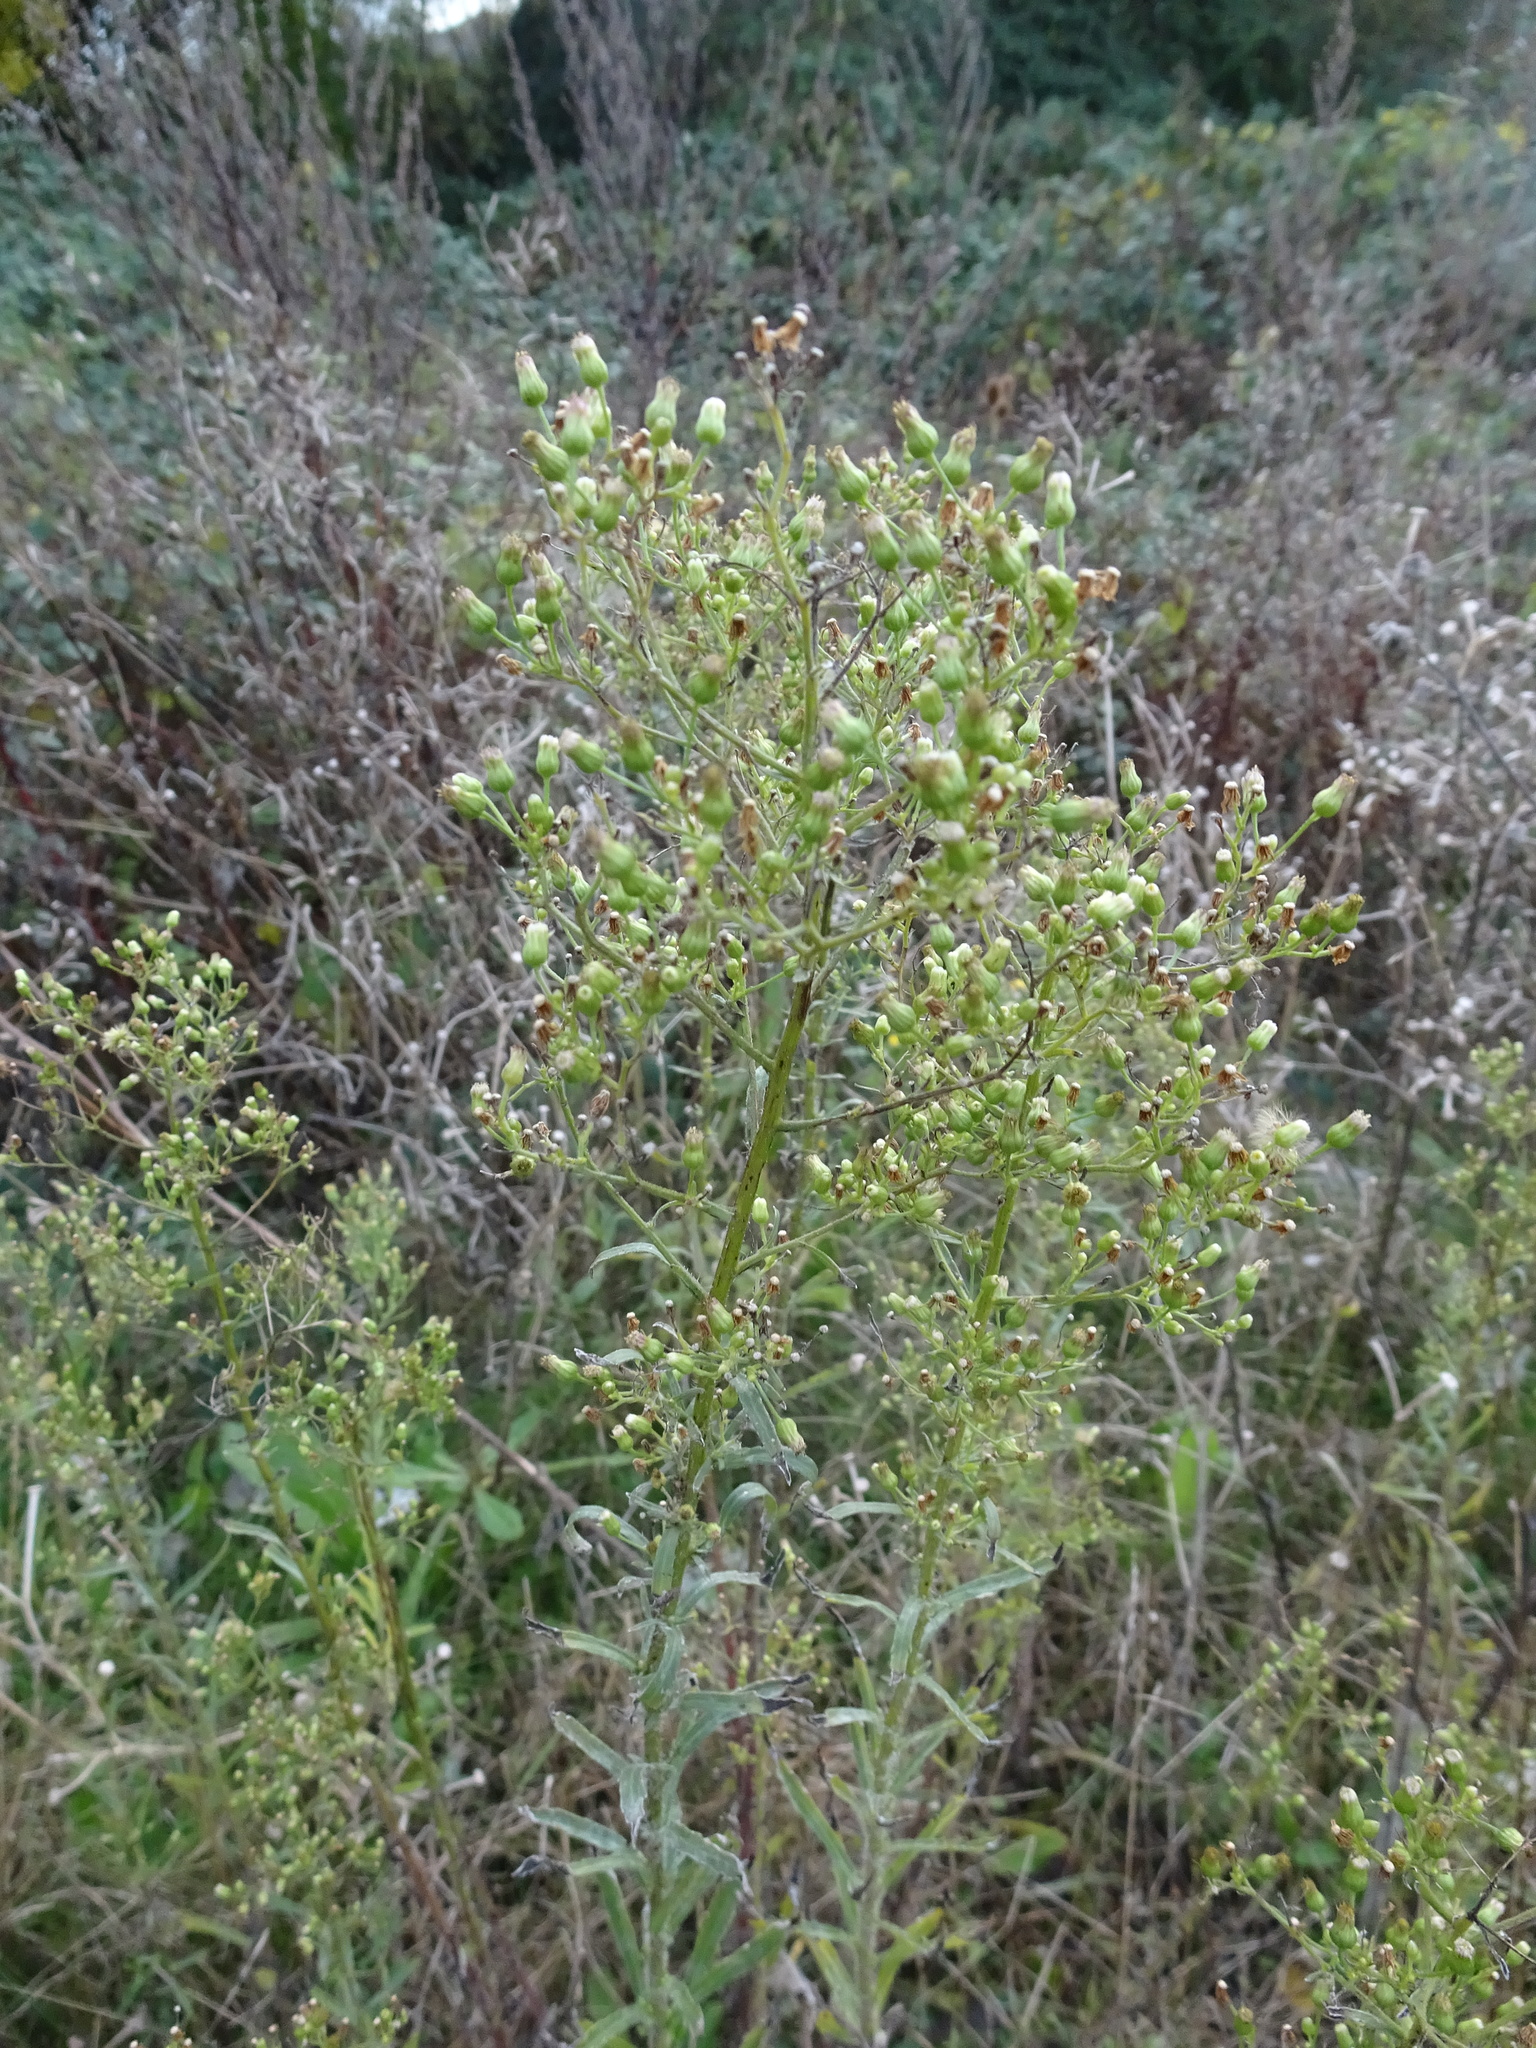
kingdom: Plantae
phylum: Tracheophyta
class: Magnoliopsida
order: Asterales
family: Asteraceae
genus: Erigeron
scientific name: Erigeron canadensis
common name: Canadian fleabane
